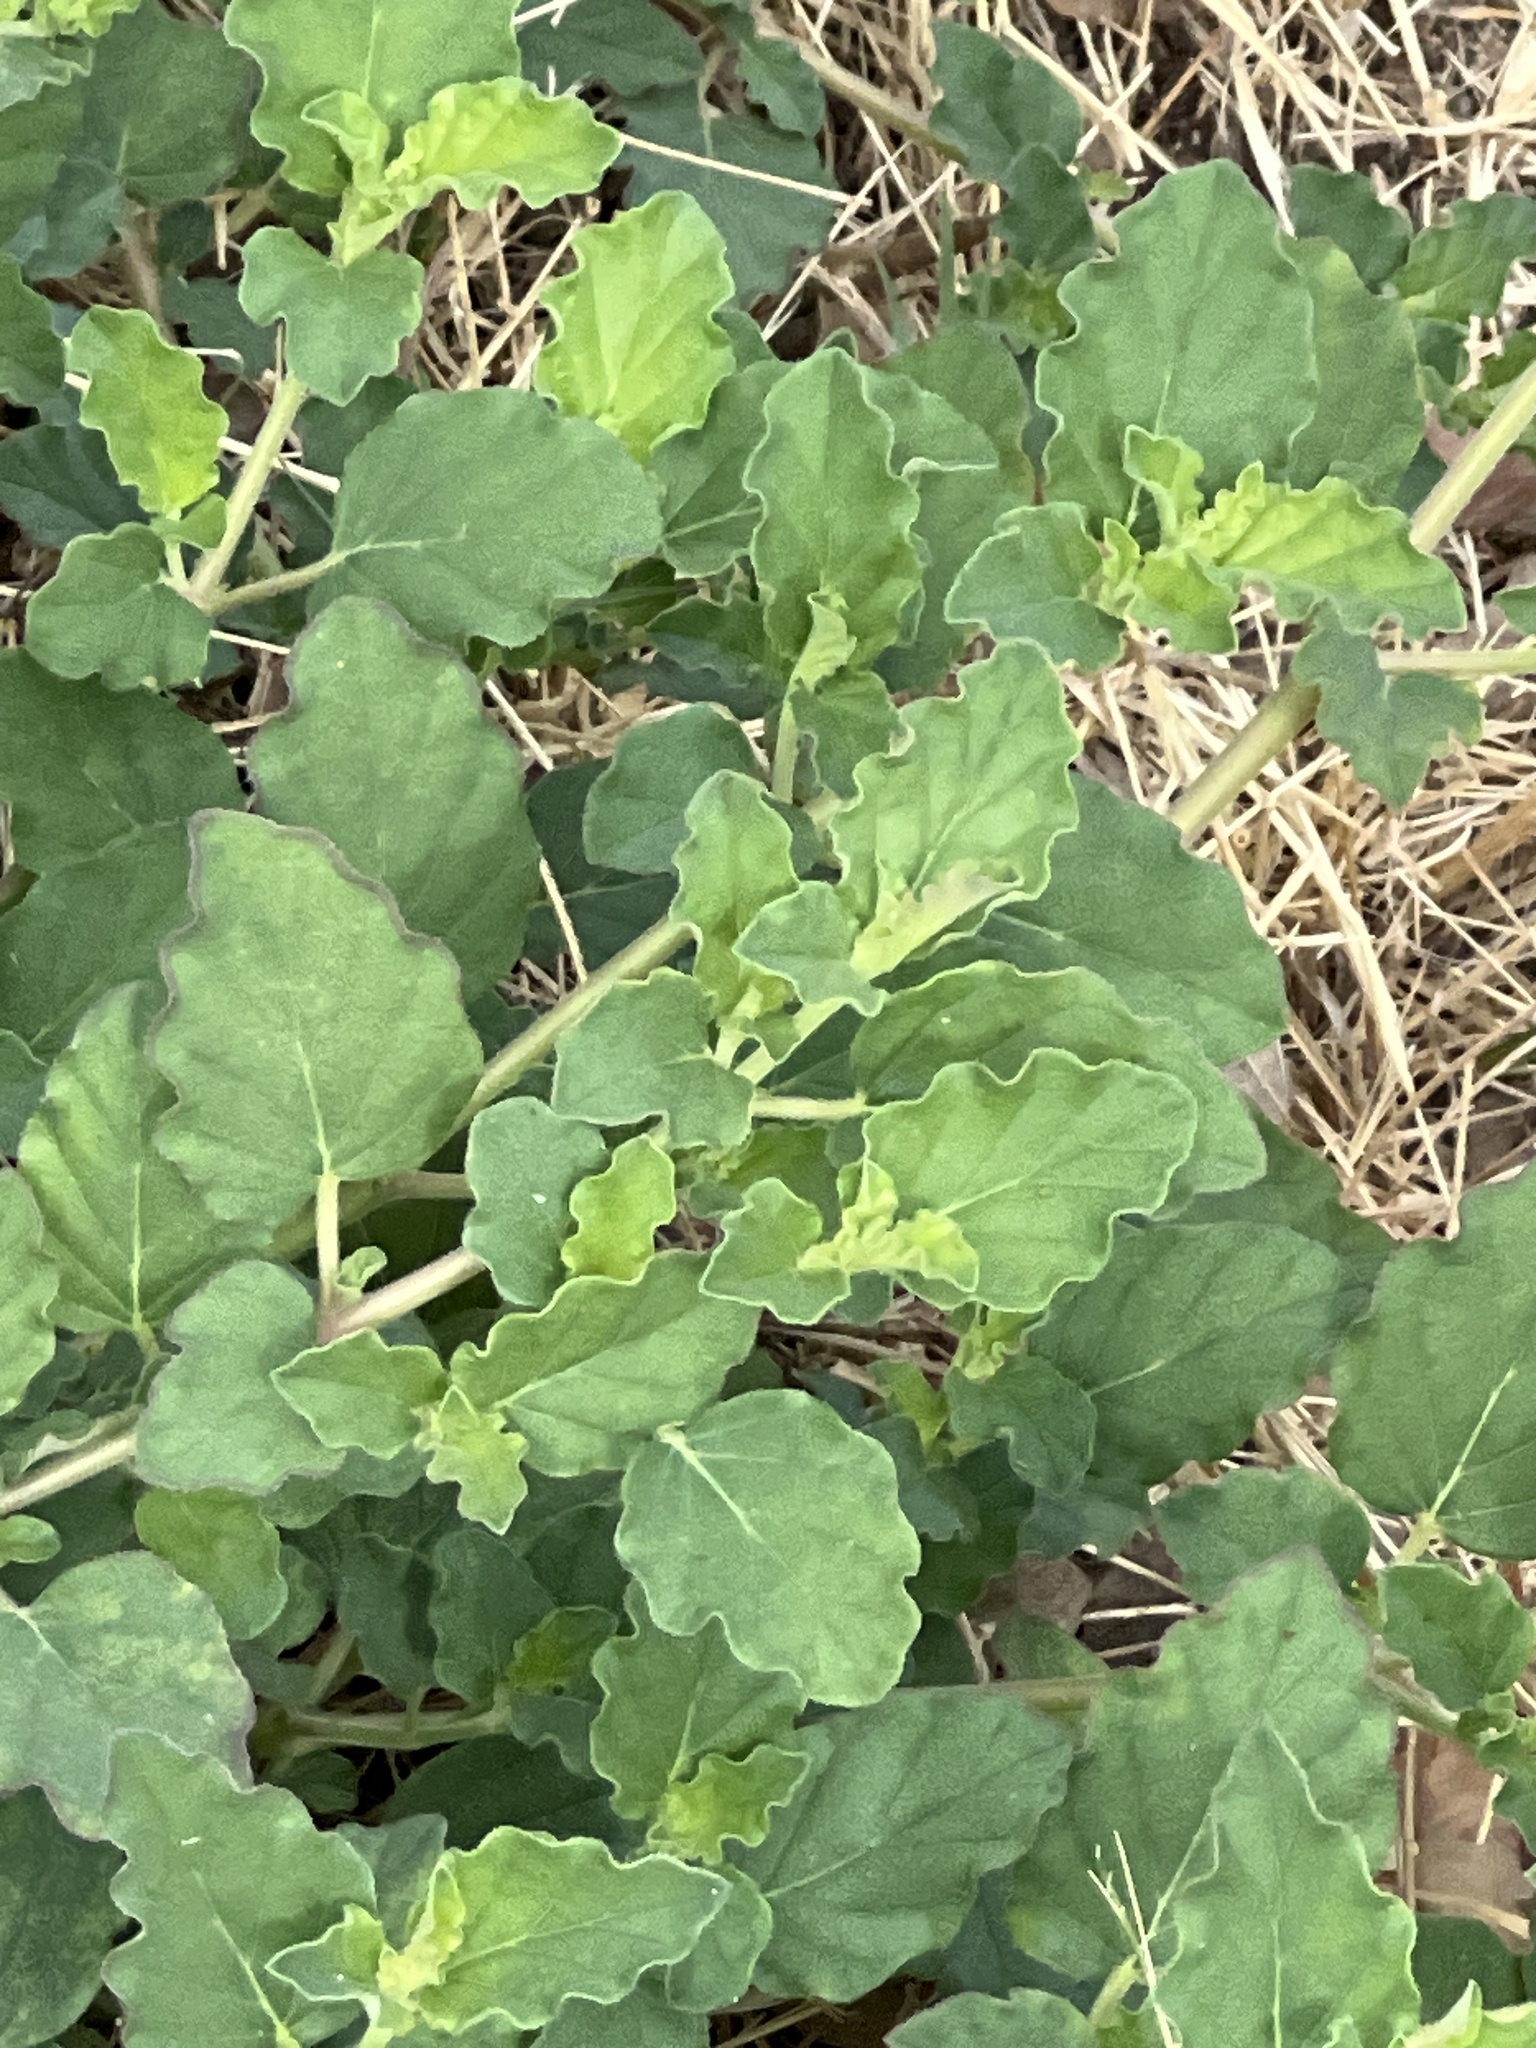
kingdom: Plantae
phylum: Tracheophyta
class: Magnoliopsida
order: Caryophyllales
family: Nyctaginaceae
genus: Boerhavia
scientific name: Boerhavia coccinea
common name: Scarlet spiderling
